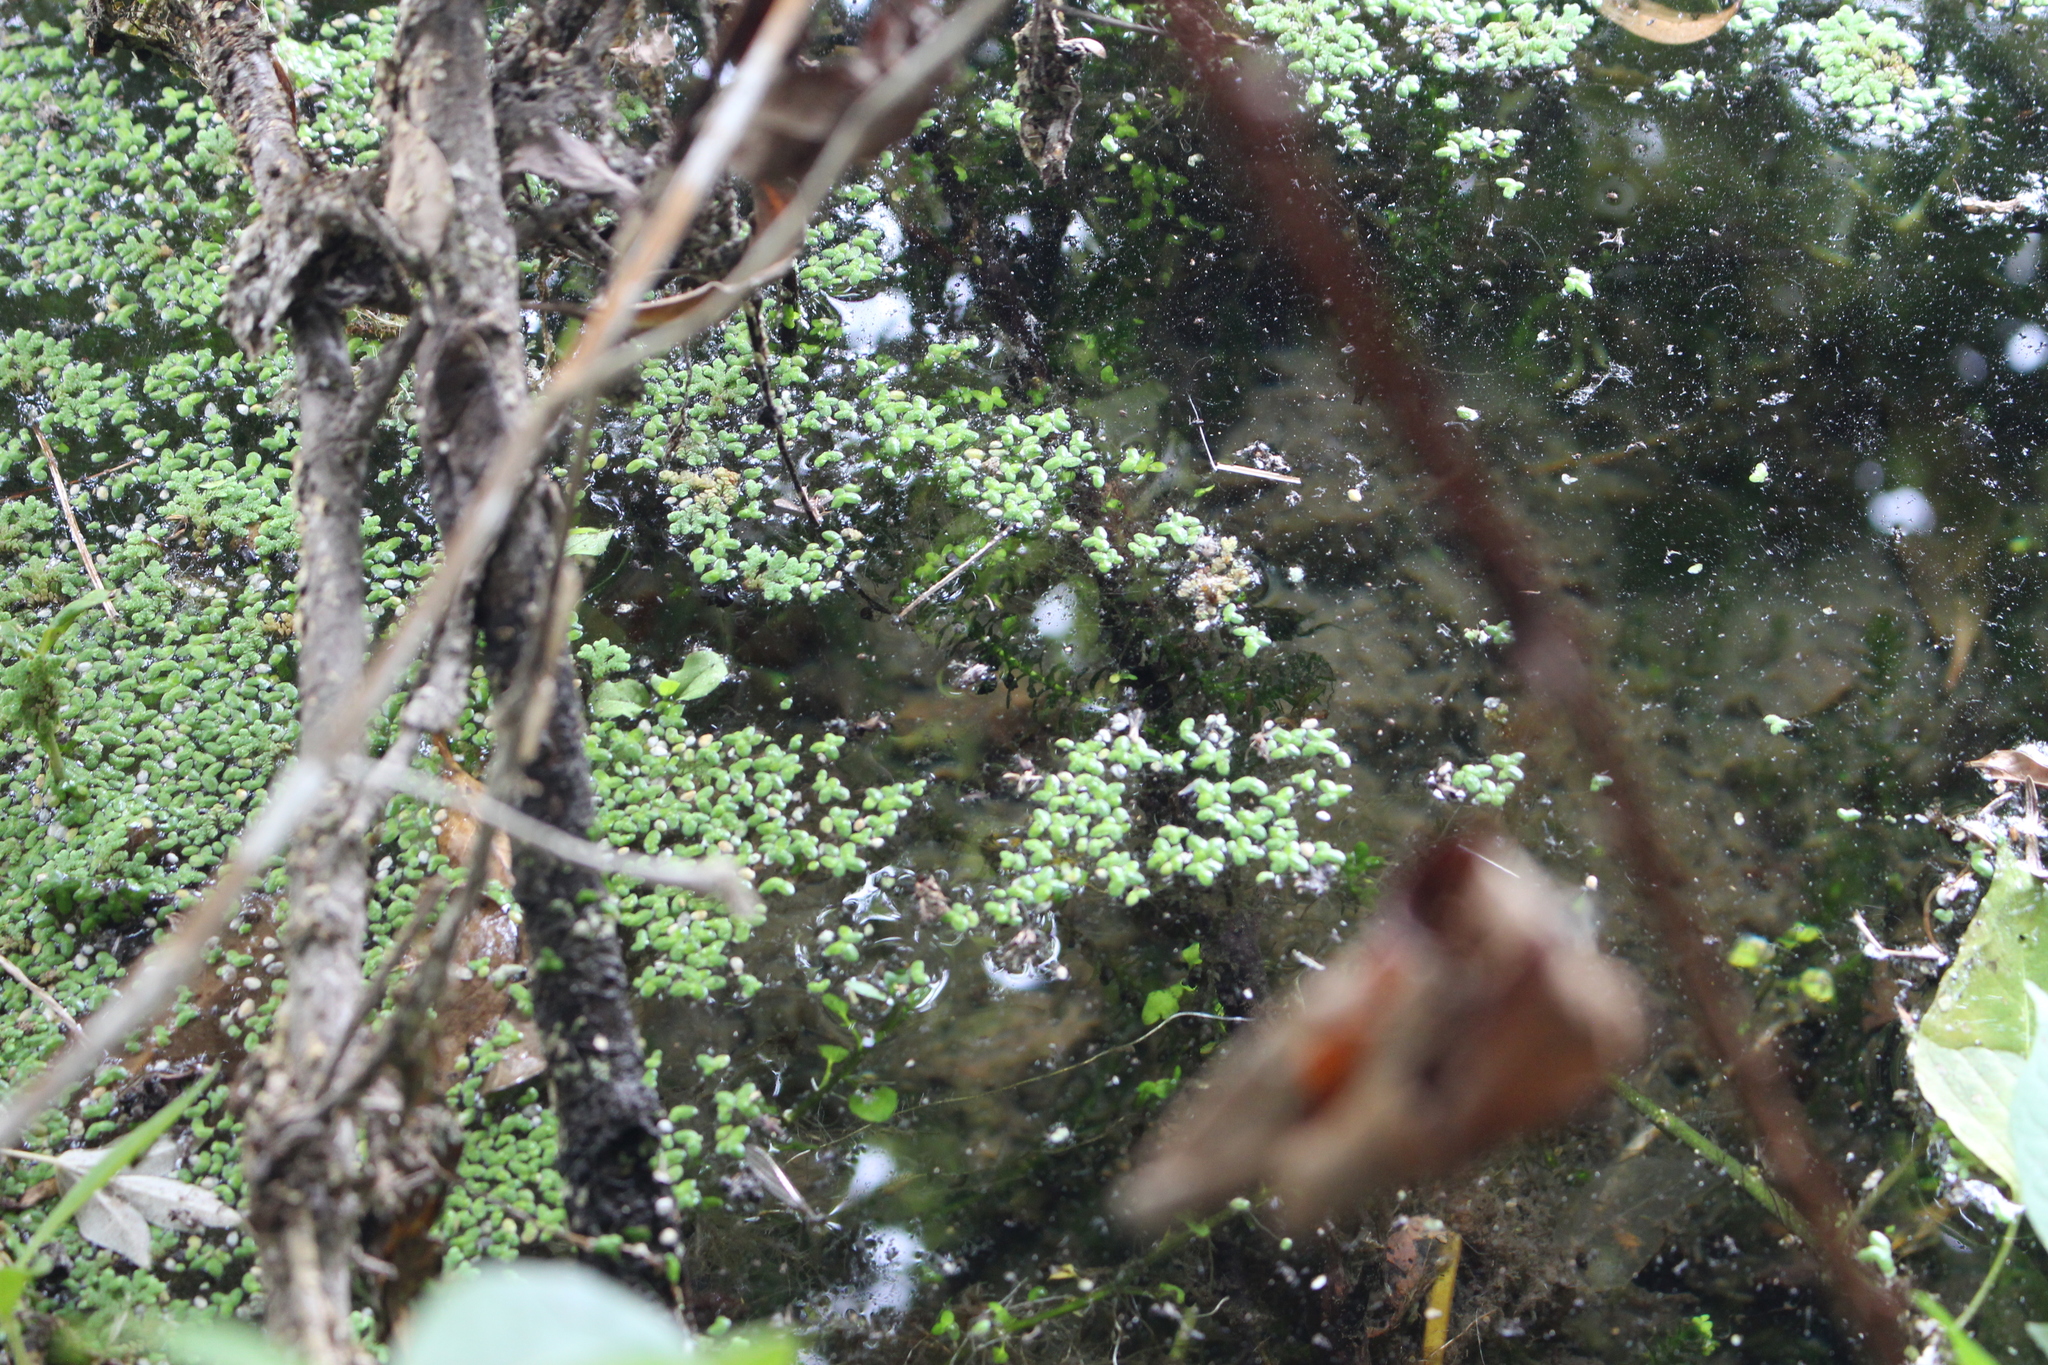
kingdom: Plantae
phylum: Tracheophyta
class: Liliopsida
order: Alismatales
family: Hydrocharitaceae
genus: Elodea
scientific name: Elodea canadensis
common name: Canadian waterweed
